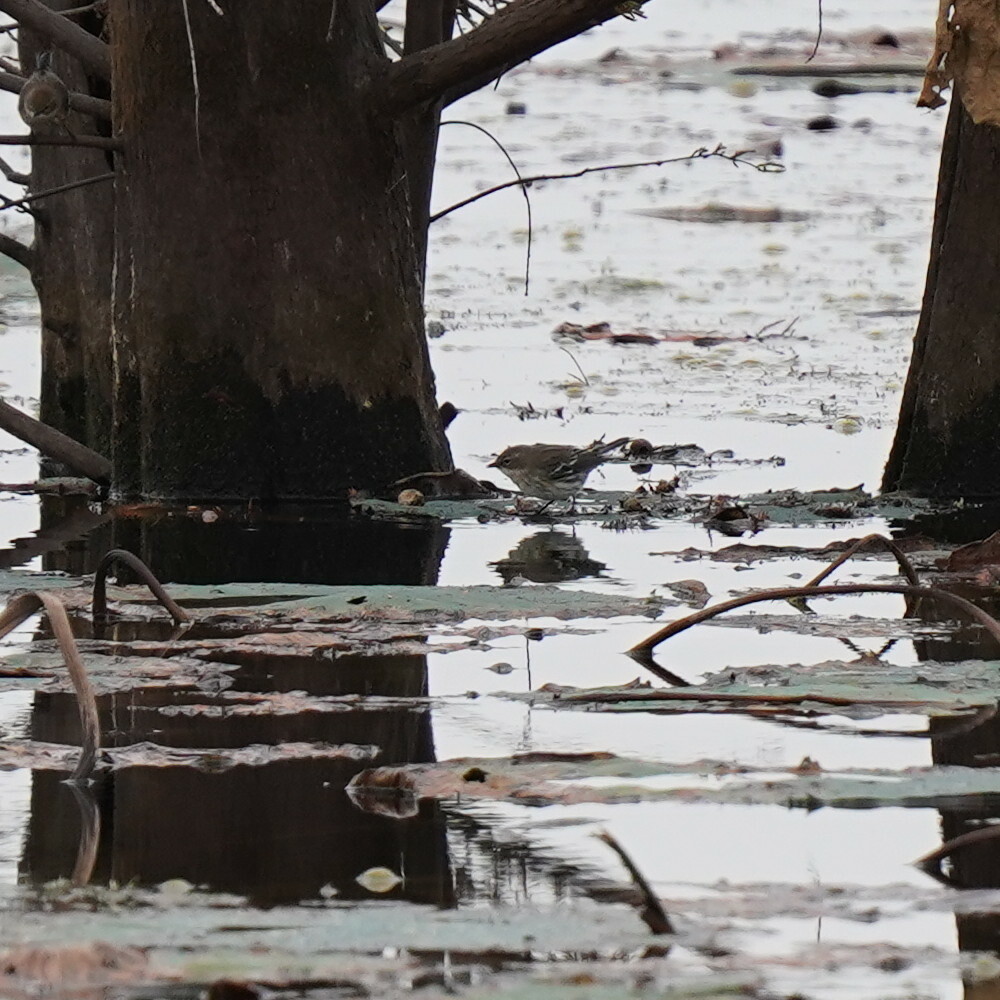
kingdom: Animalia
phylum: Chordata
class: Aves
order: Passeriformes
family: Parulidae
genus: Setophaga
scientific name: Setophaga coronata
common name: Myrtle warbler
